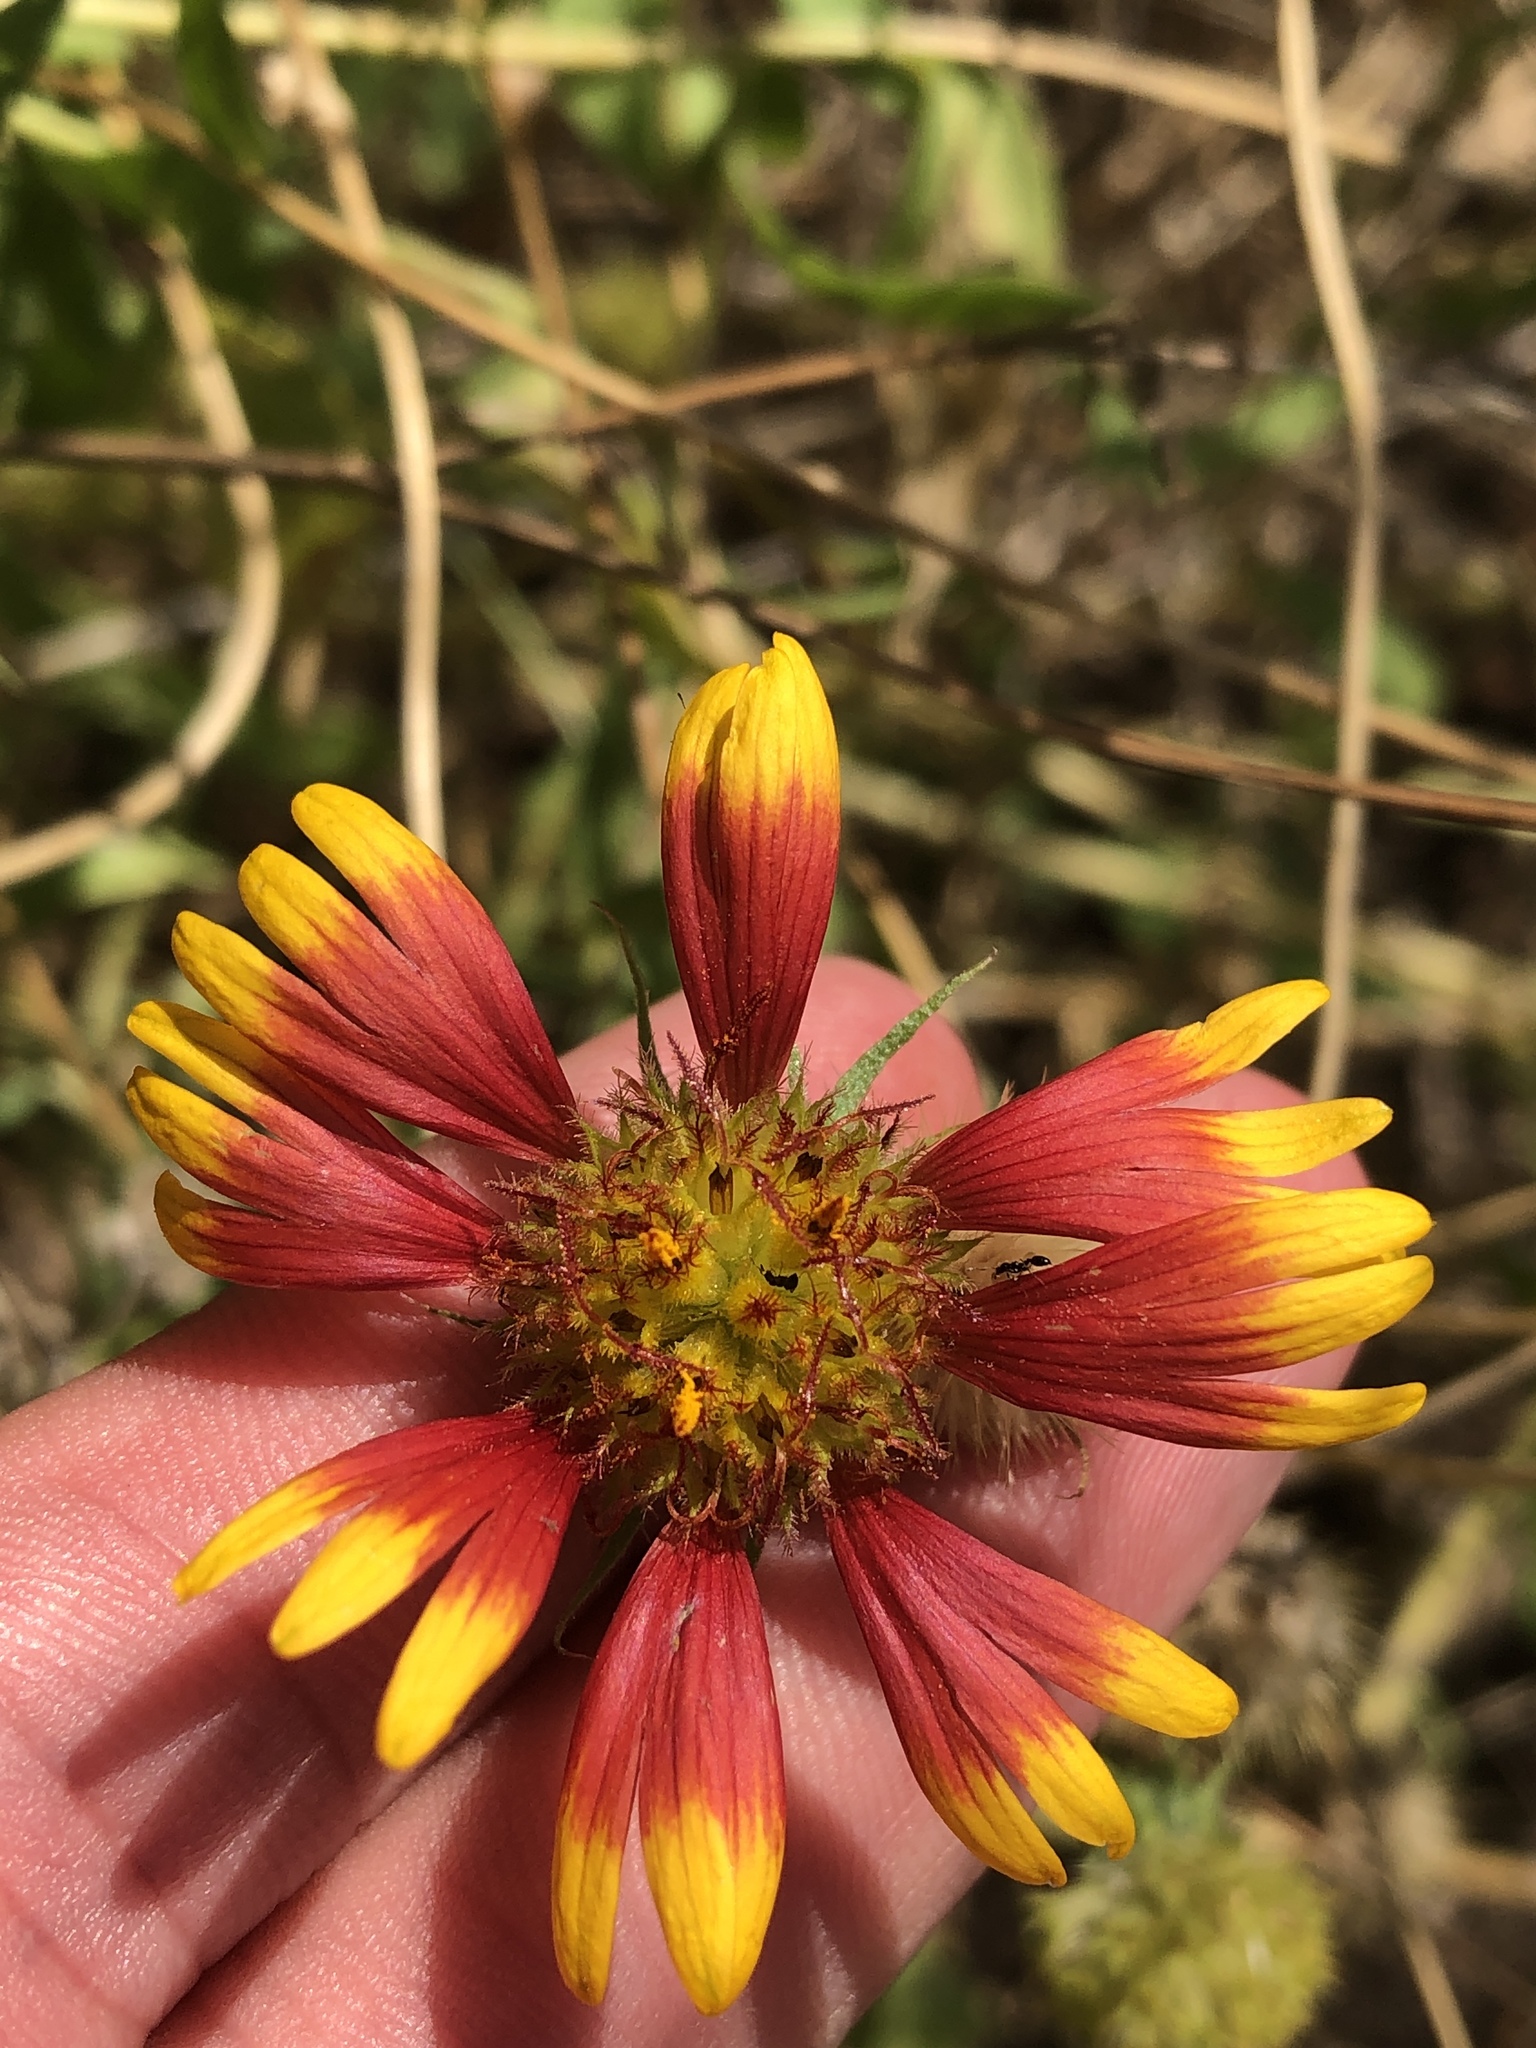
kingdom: Plantae
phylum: Tracheophyta
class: Magnoliopsida
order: Asterales
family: Asteraceae
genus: Gaillardia
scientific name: Gaillardia pulchella
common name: Firewheel
